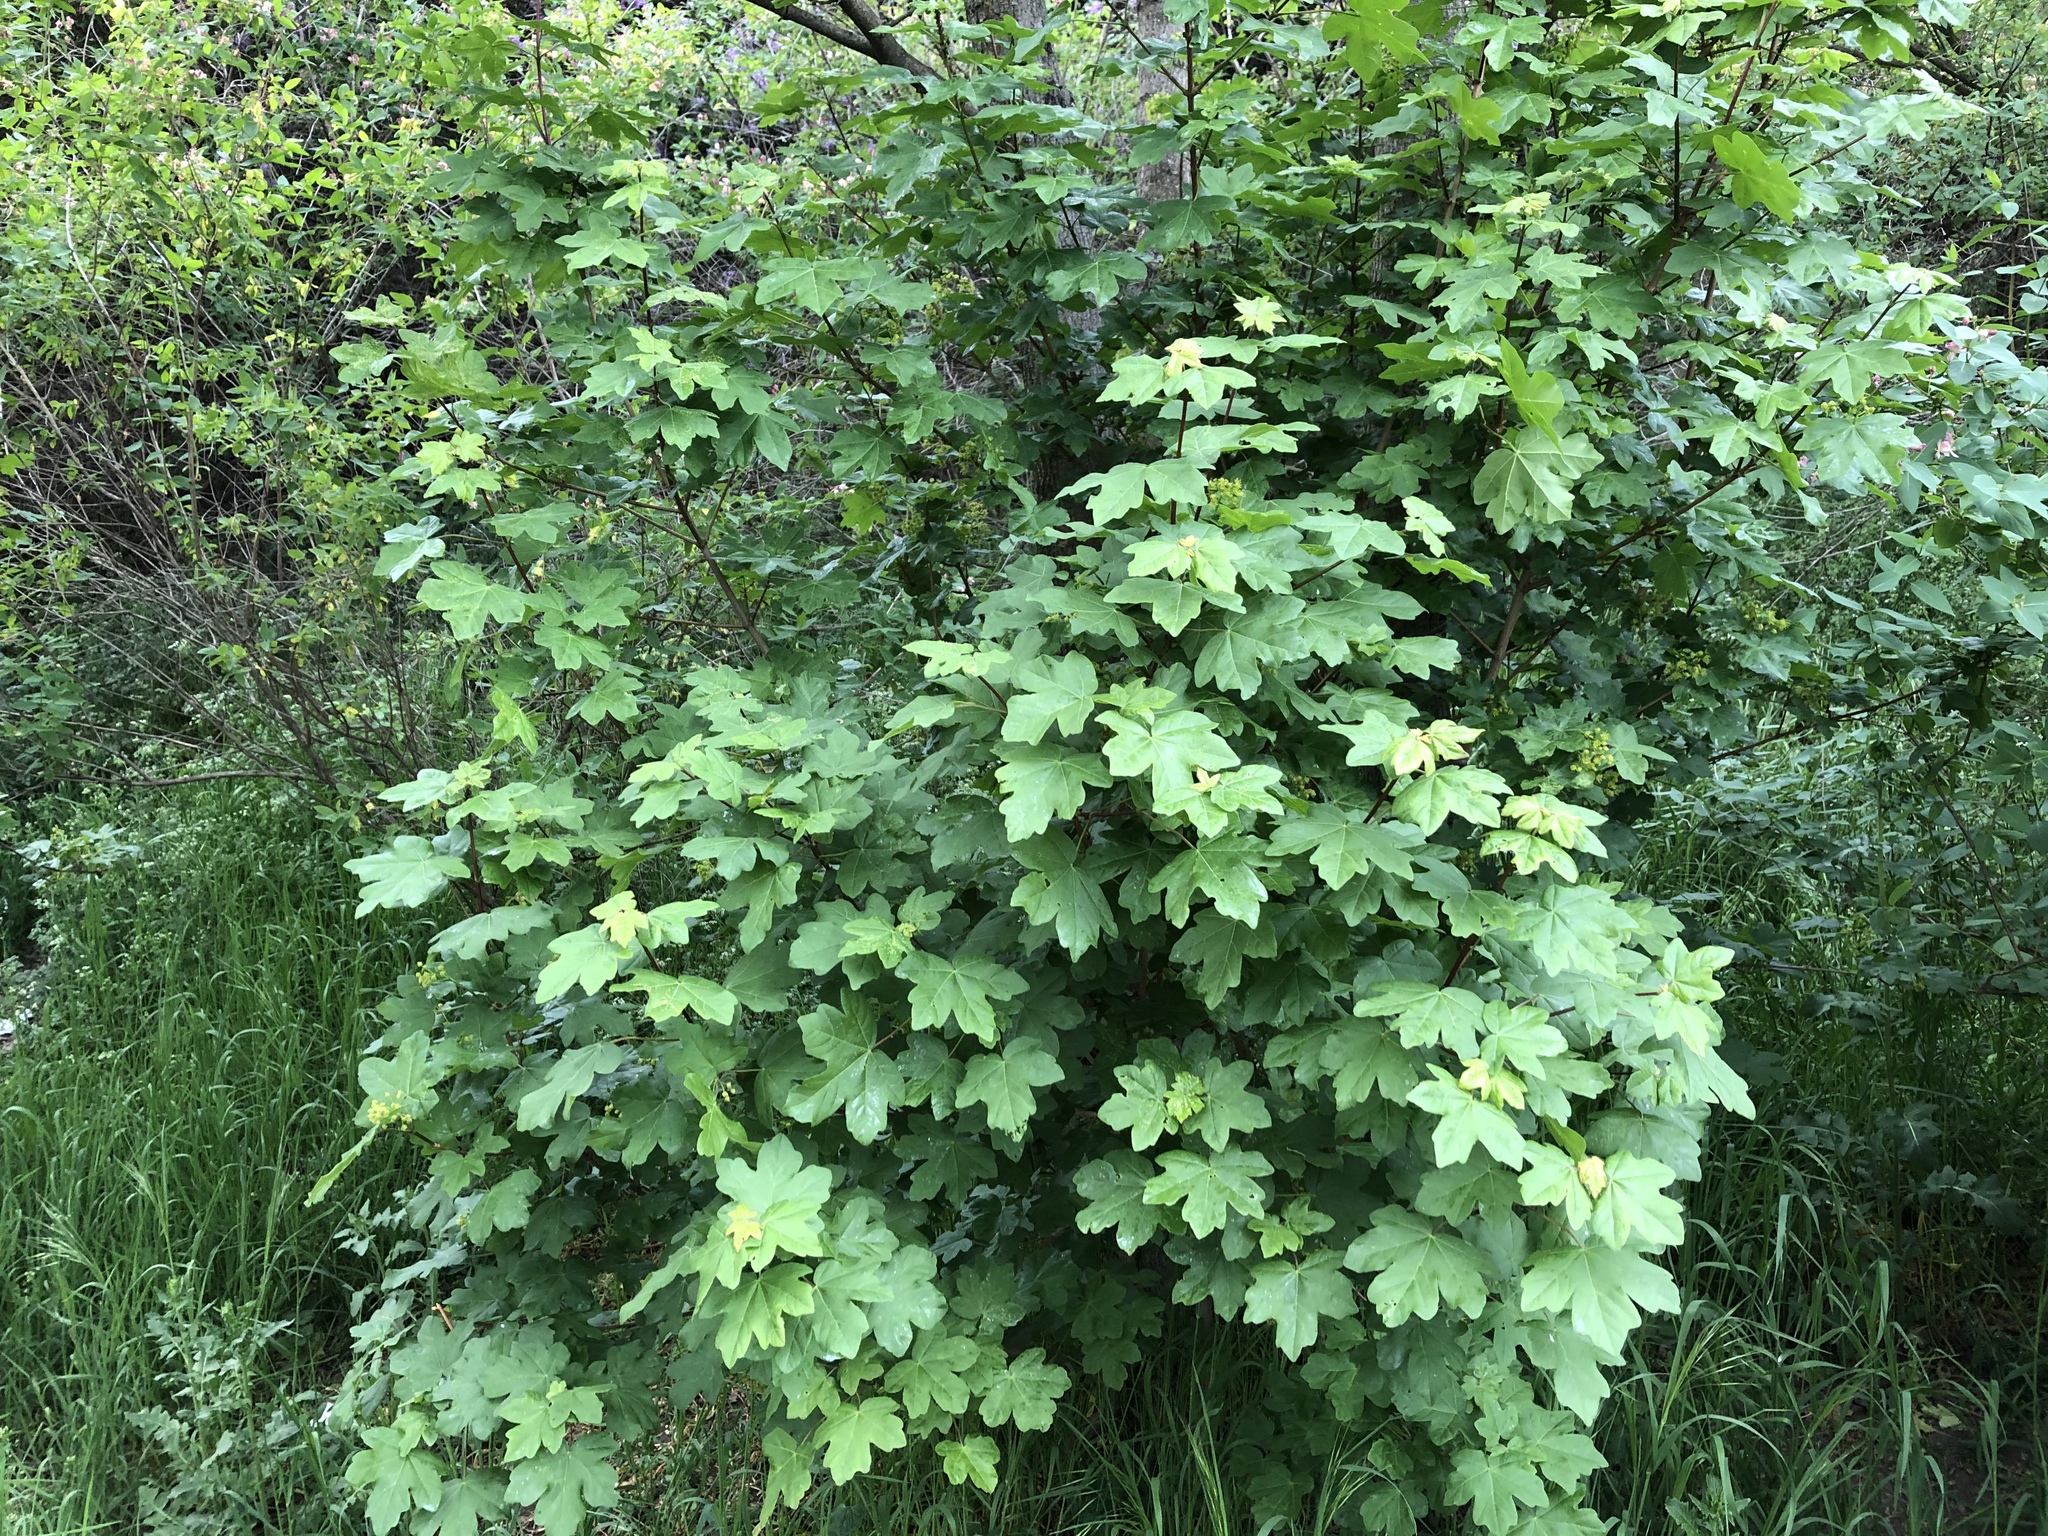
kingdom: Plantae
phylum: Tracheophyta
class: Magnoliopsida
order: Sapindales
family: Sapindaceae
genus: Acer
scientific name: Acer campestre
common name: Field maple
